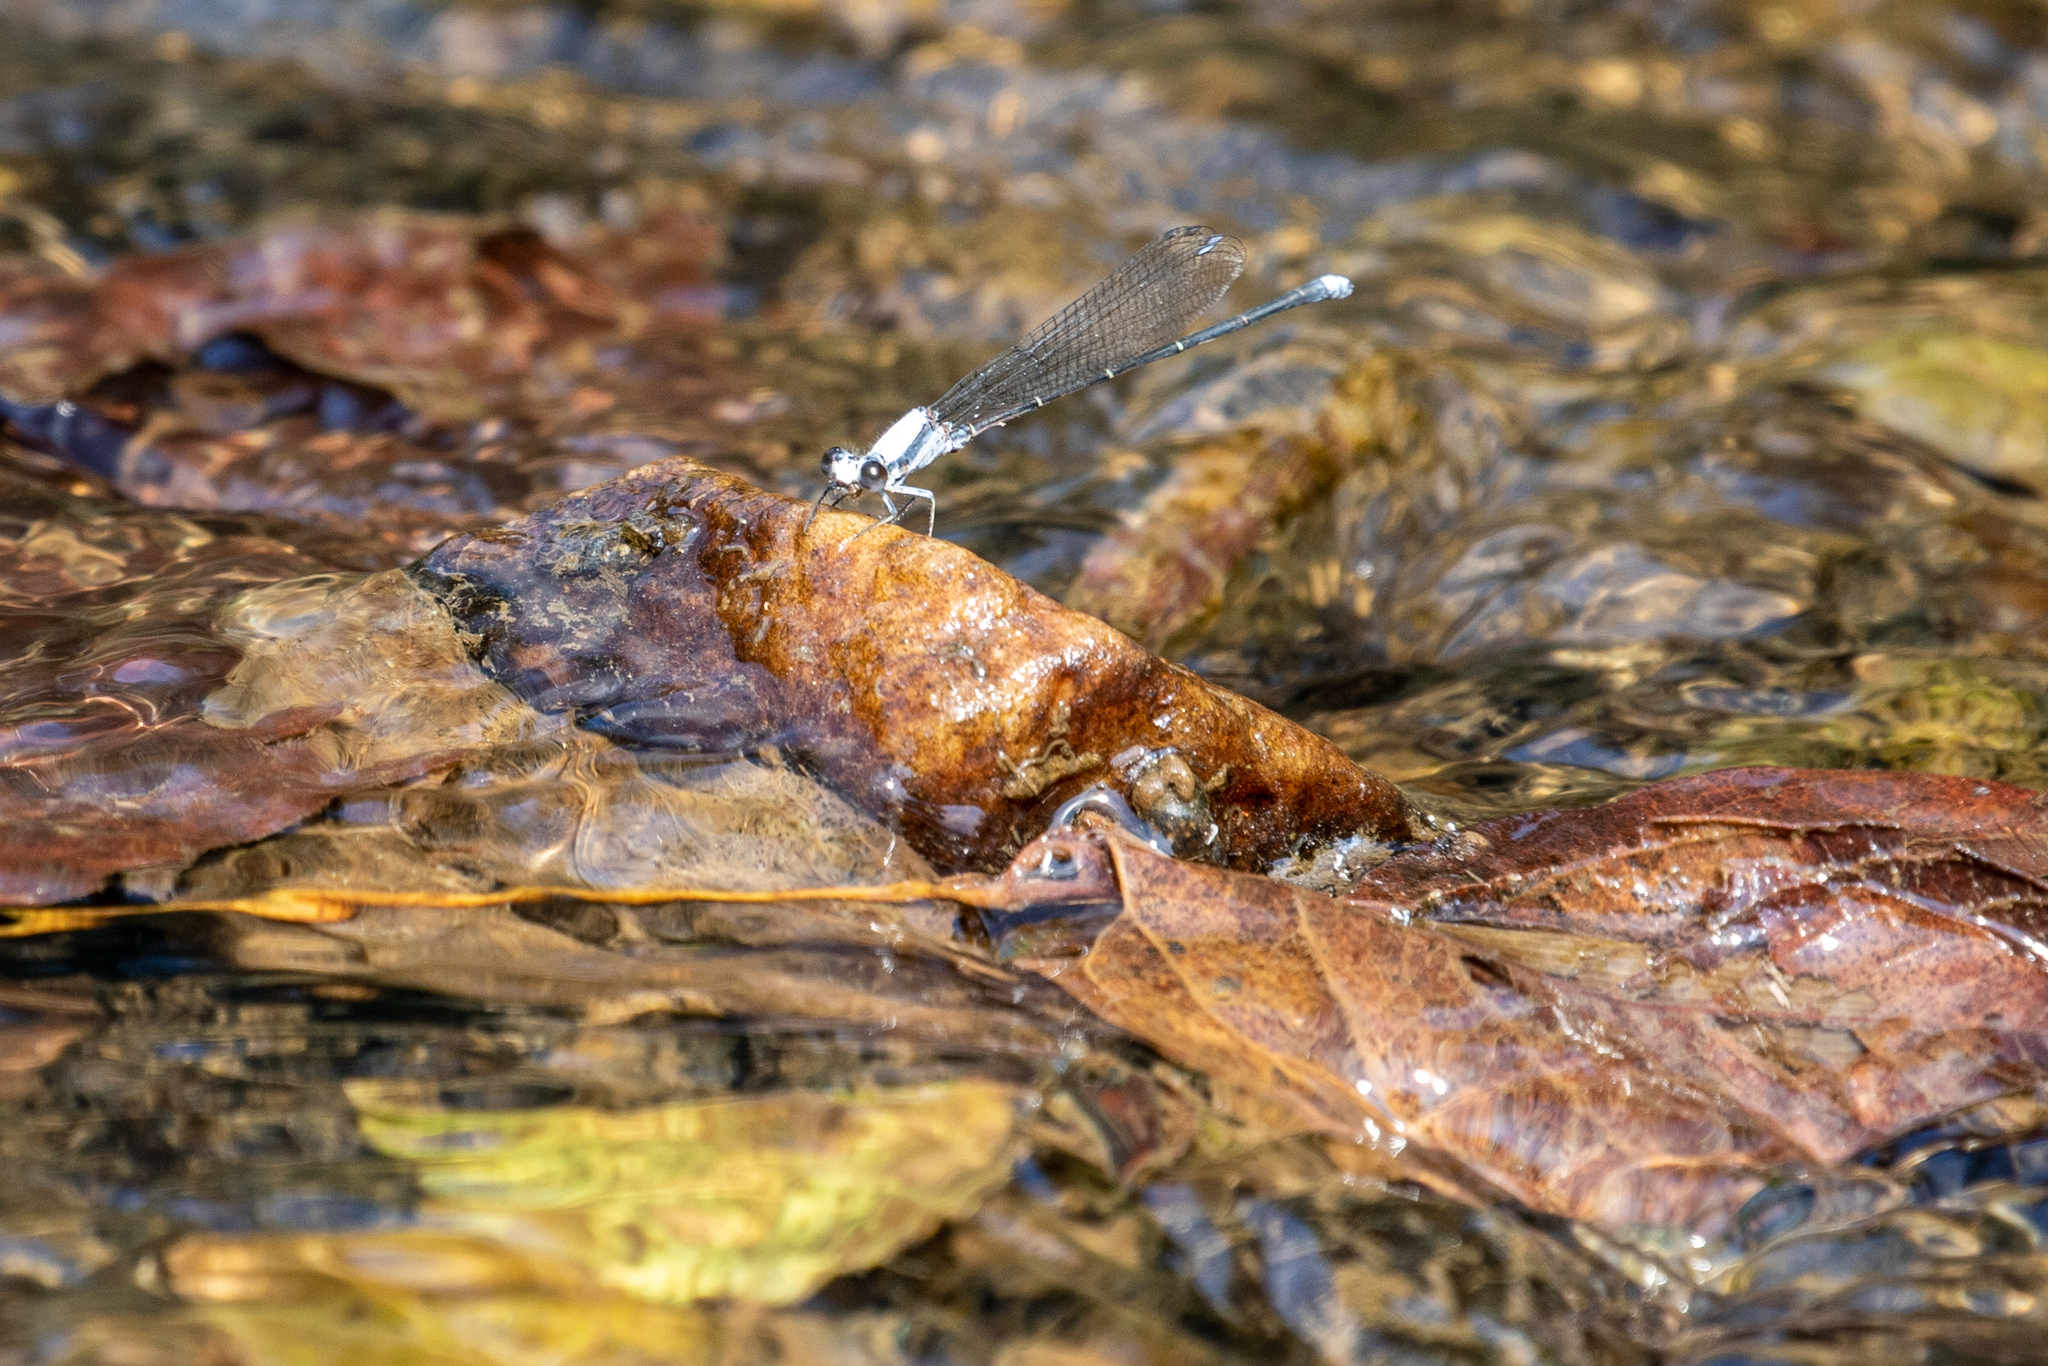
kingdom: Animalia
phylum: Arthropoda
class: Insecta
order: Odonata
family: Coenagrionidae
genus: Argia
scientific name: Argia moesta
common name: Powdered dancer
